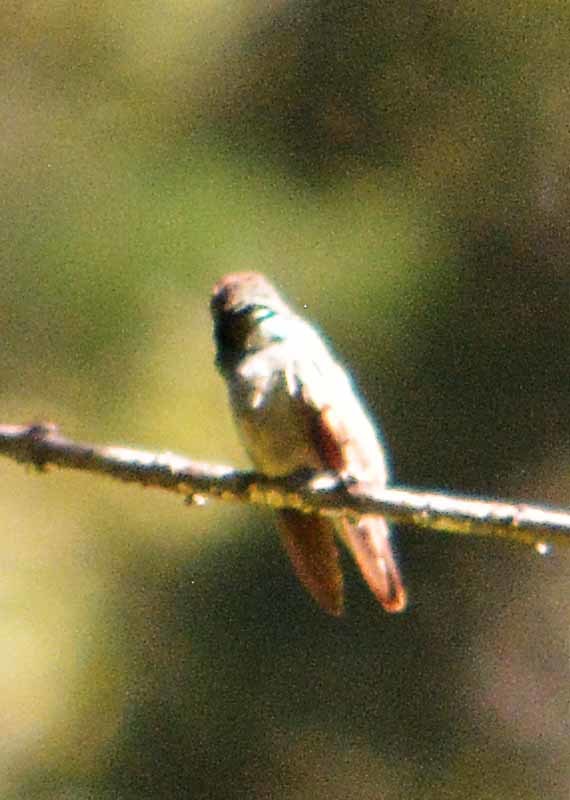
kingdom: Animalia
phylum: Chordata
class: Aves
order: Apodiformes
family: Trochilidae
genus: Saucerottia
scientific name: Saucerottia beryllina
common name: Berylline hummingbird
